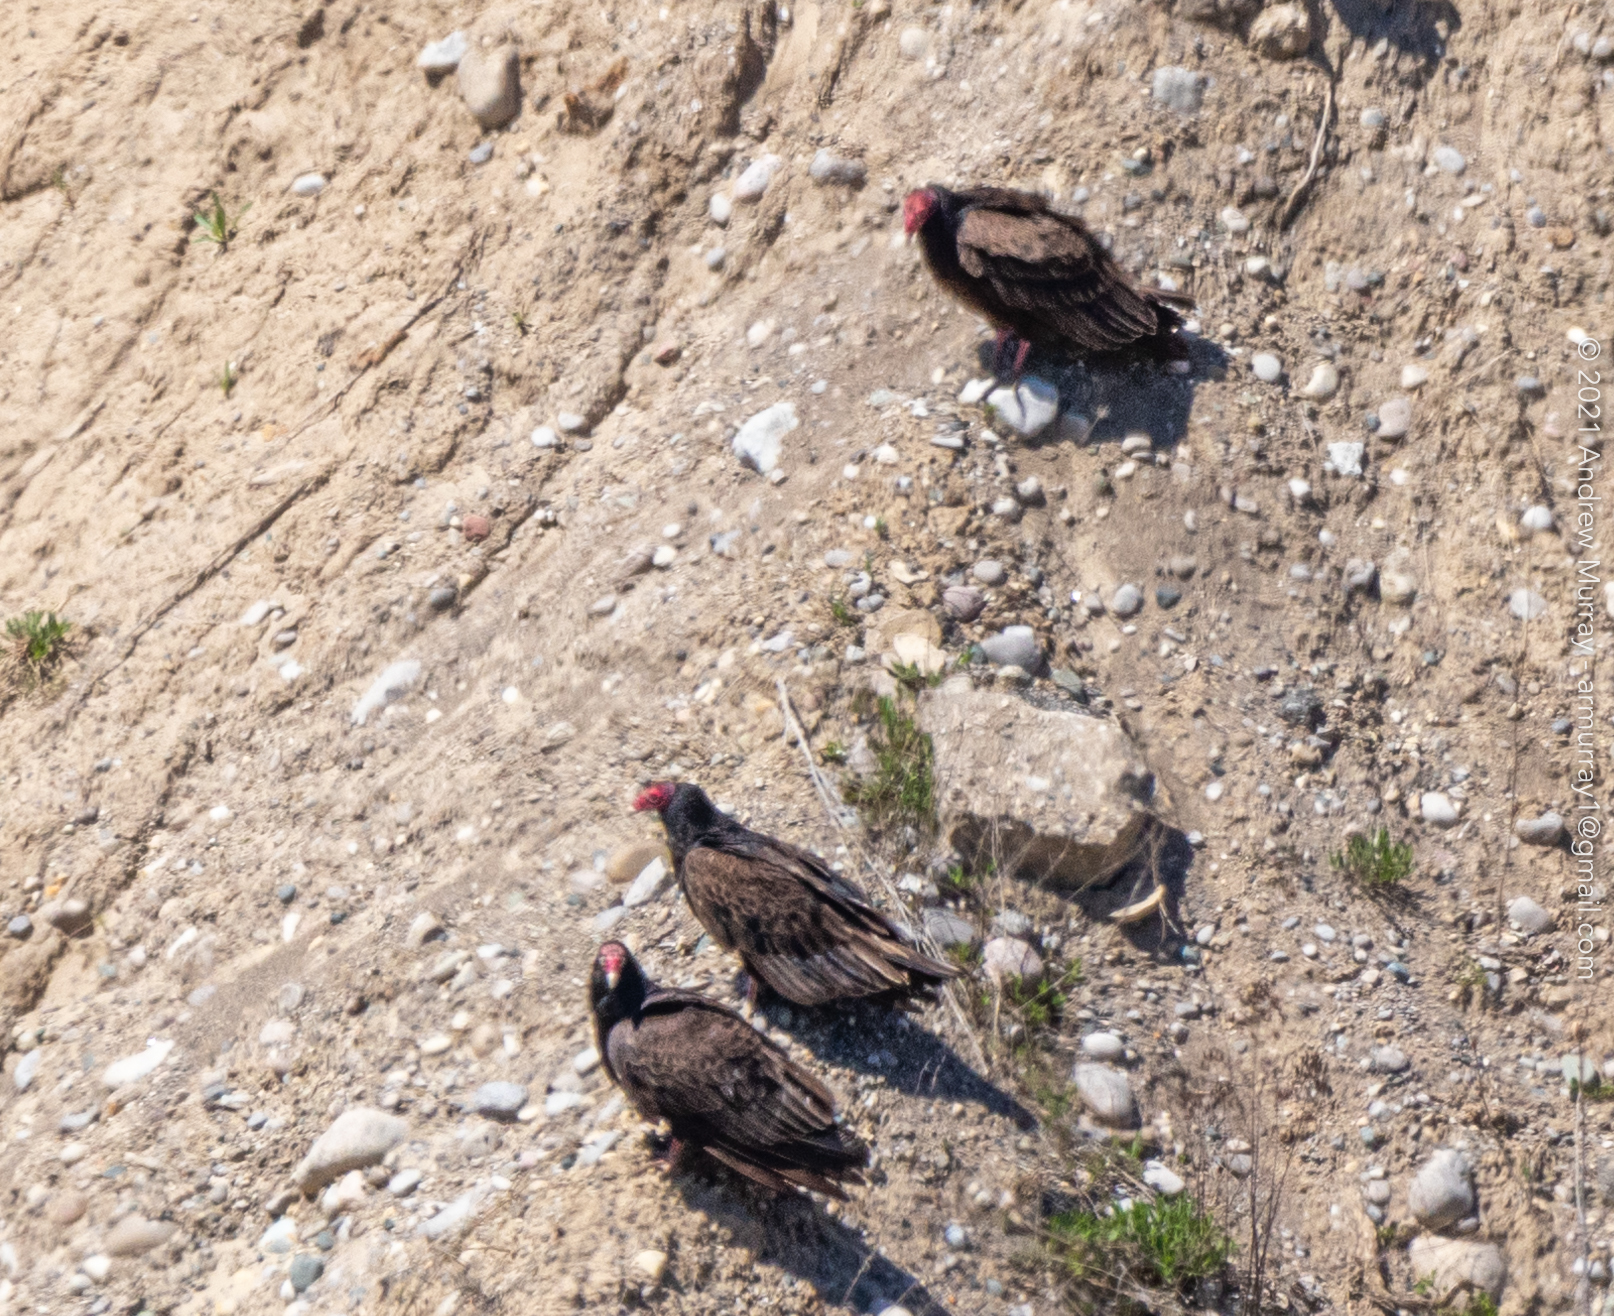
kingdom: Animalia
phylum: Chordata
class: Aves
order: Accipitriformes
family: Cathartidae
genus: Cathartes
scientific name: Cathartes aura
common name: Turkey vulture
